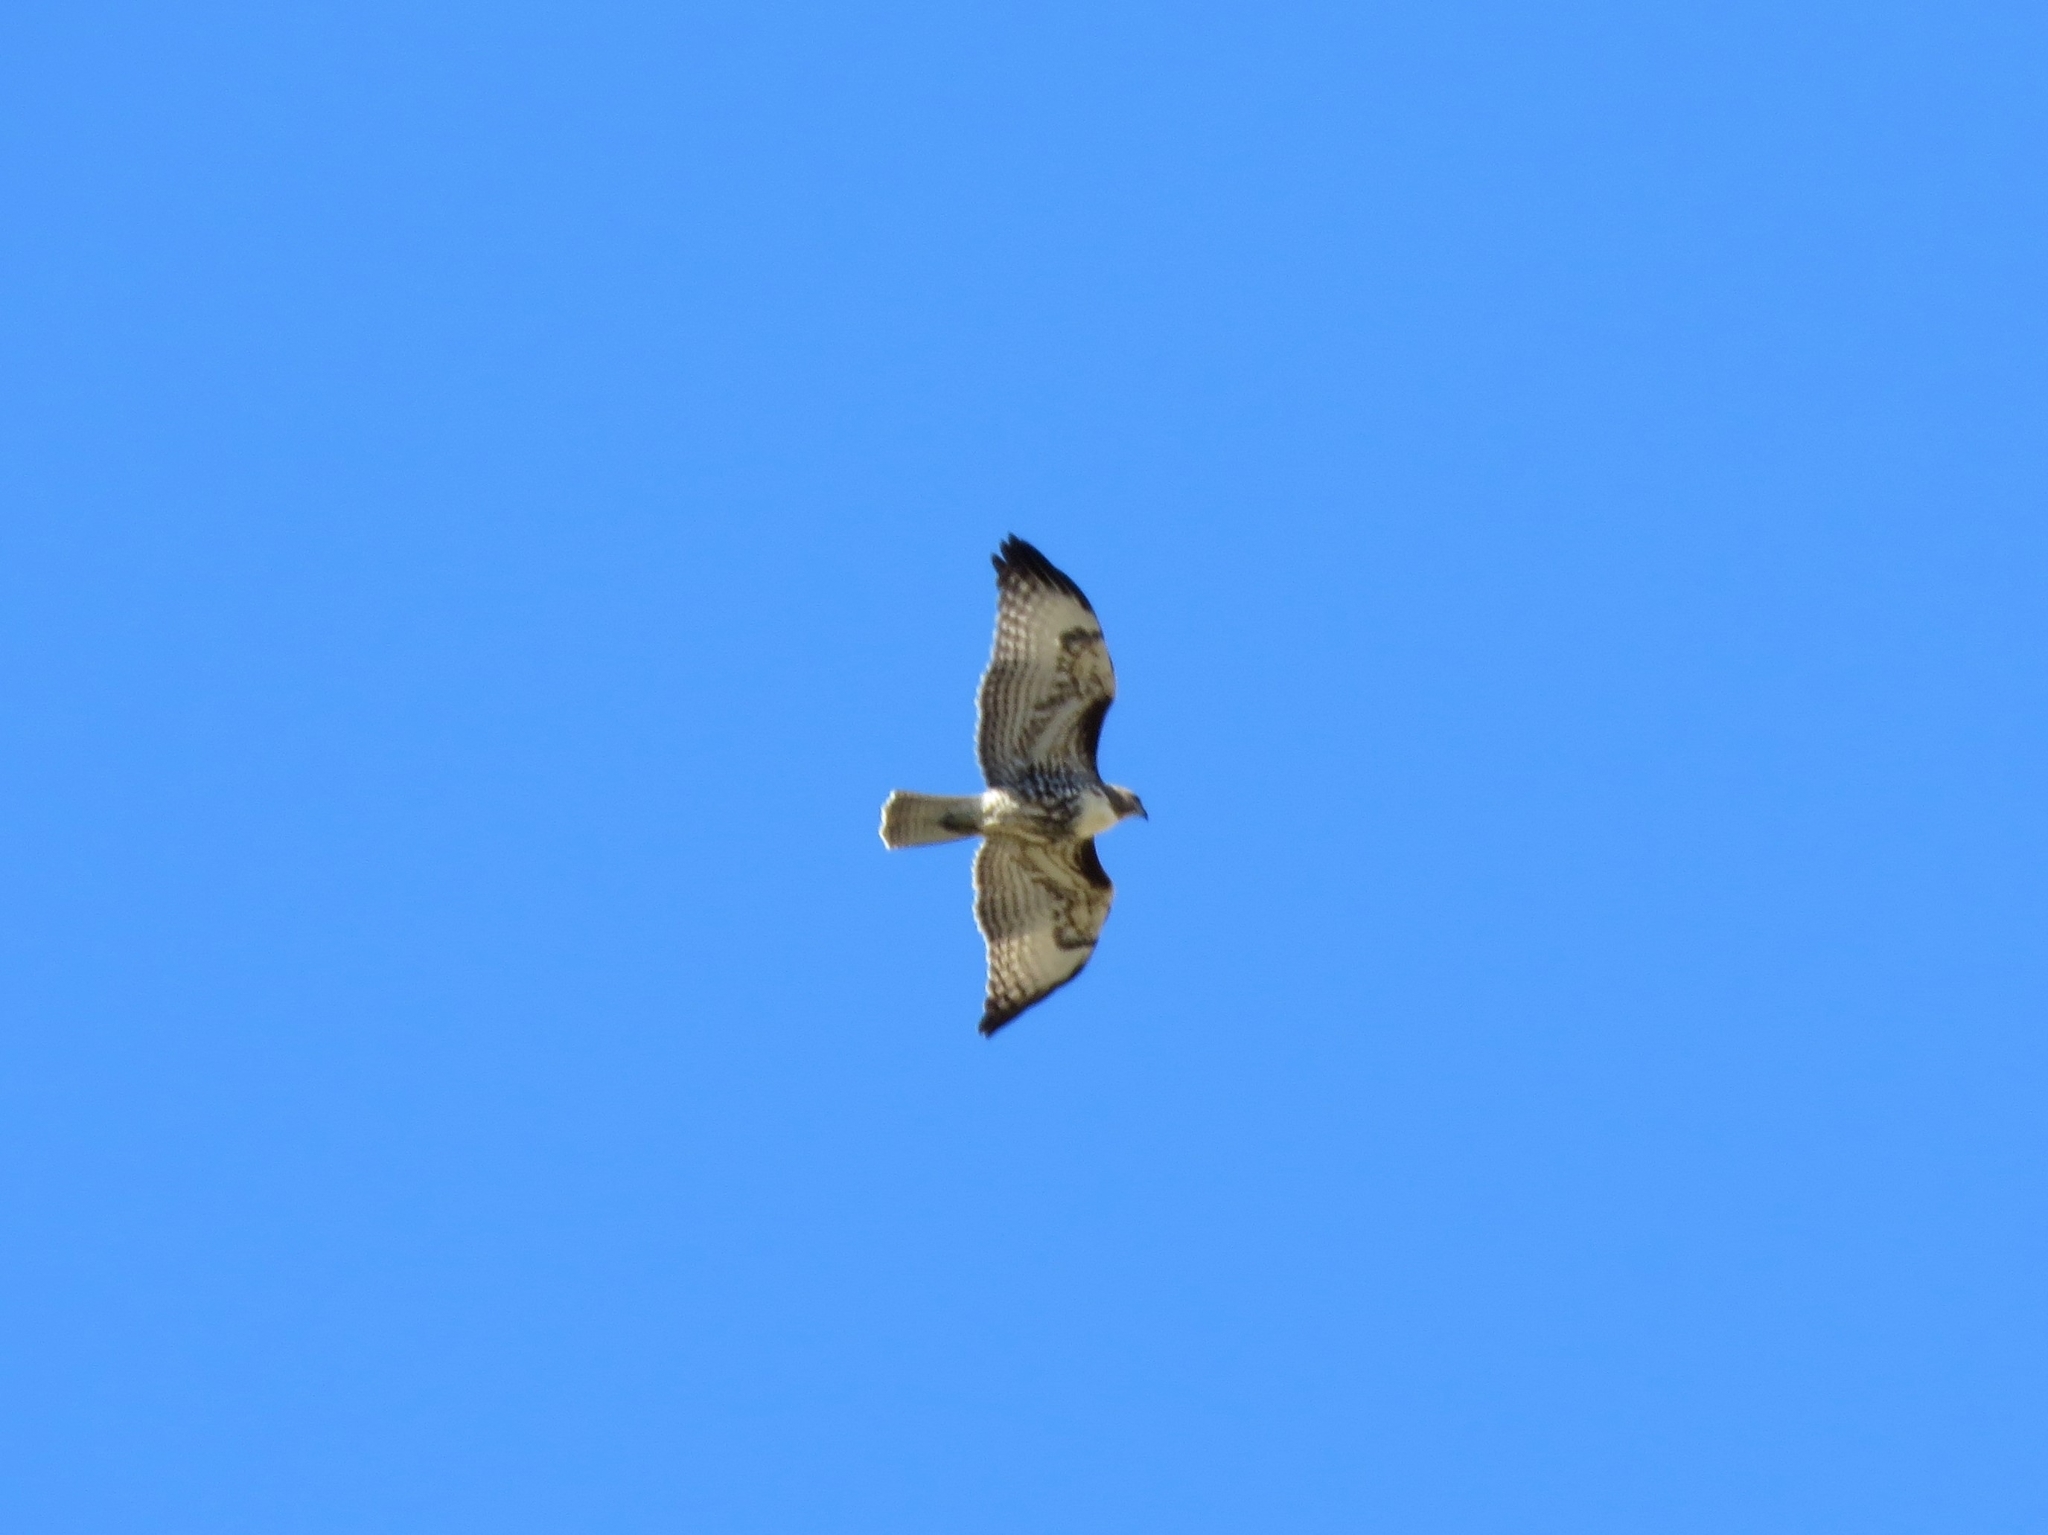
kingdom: Animalia
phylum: Chordata
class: Aves
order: Accipitriformes
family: Accipitridae
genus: Buteo
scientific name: Buteo jamaicensis
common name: Red-tailed hawk
